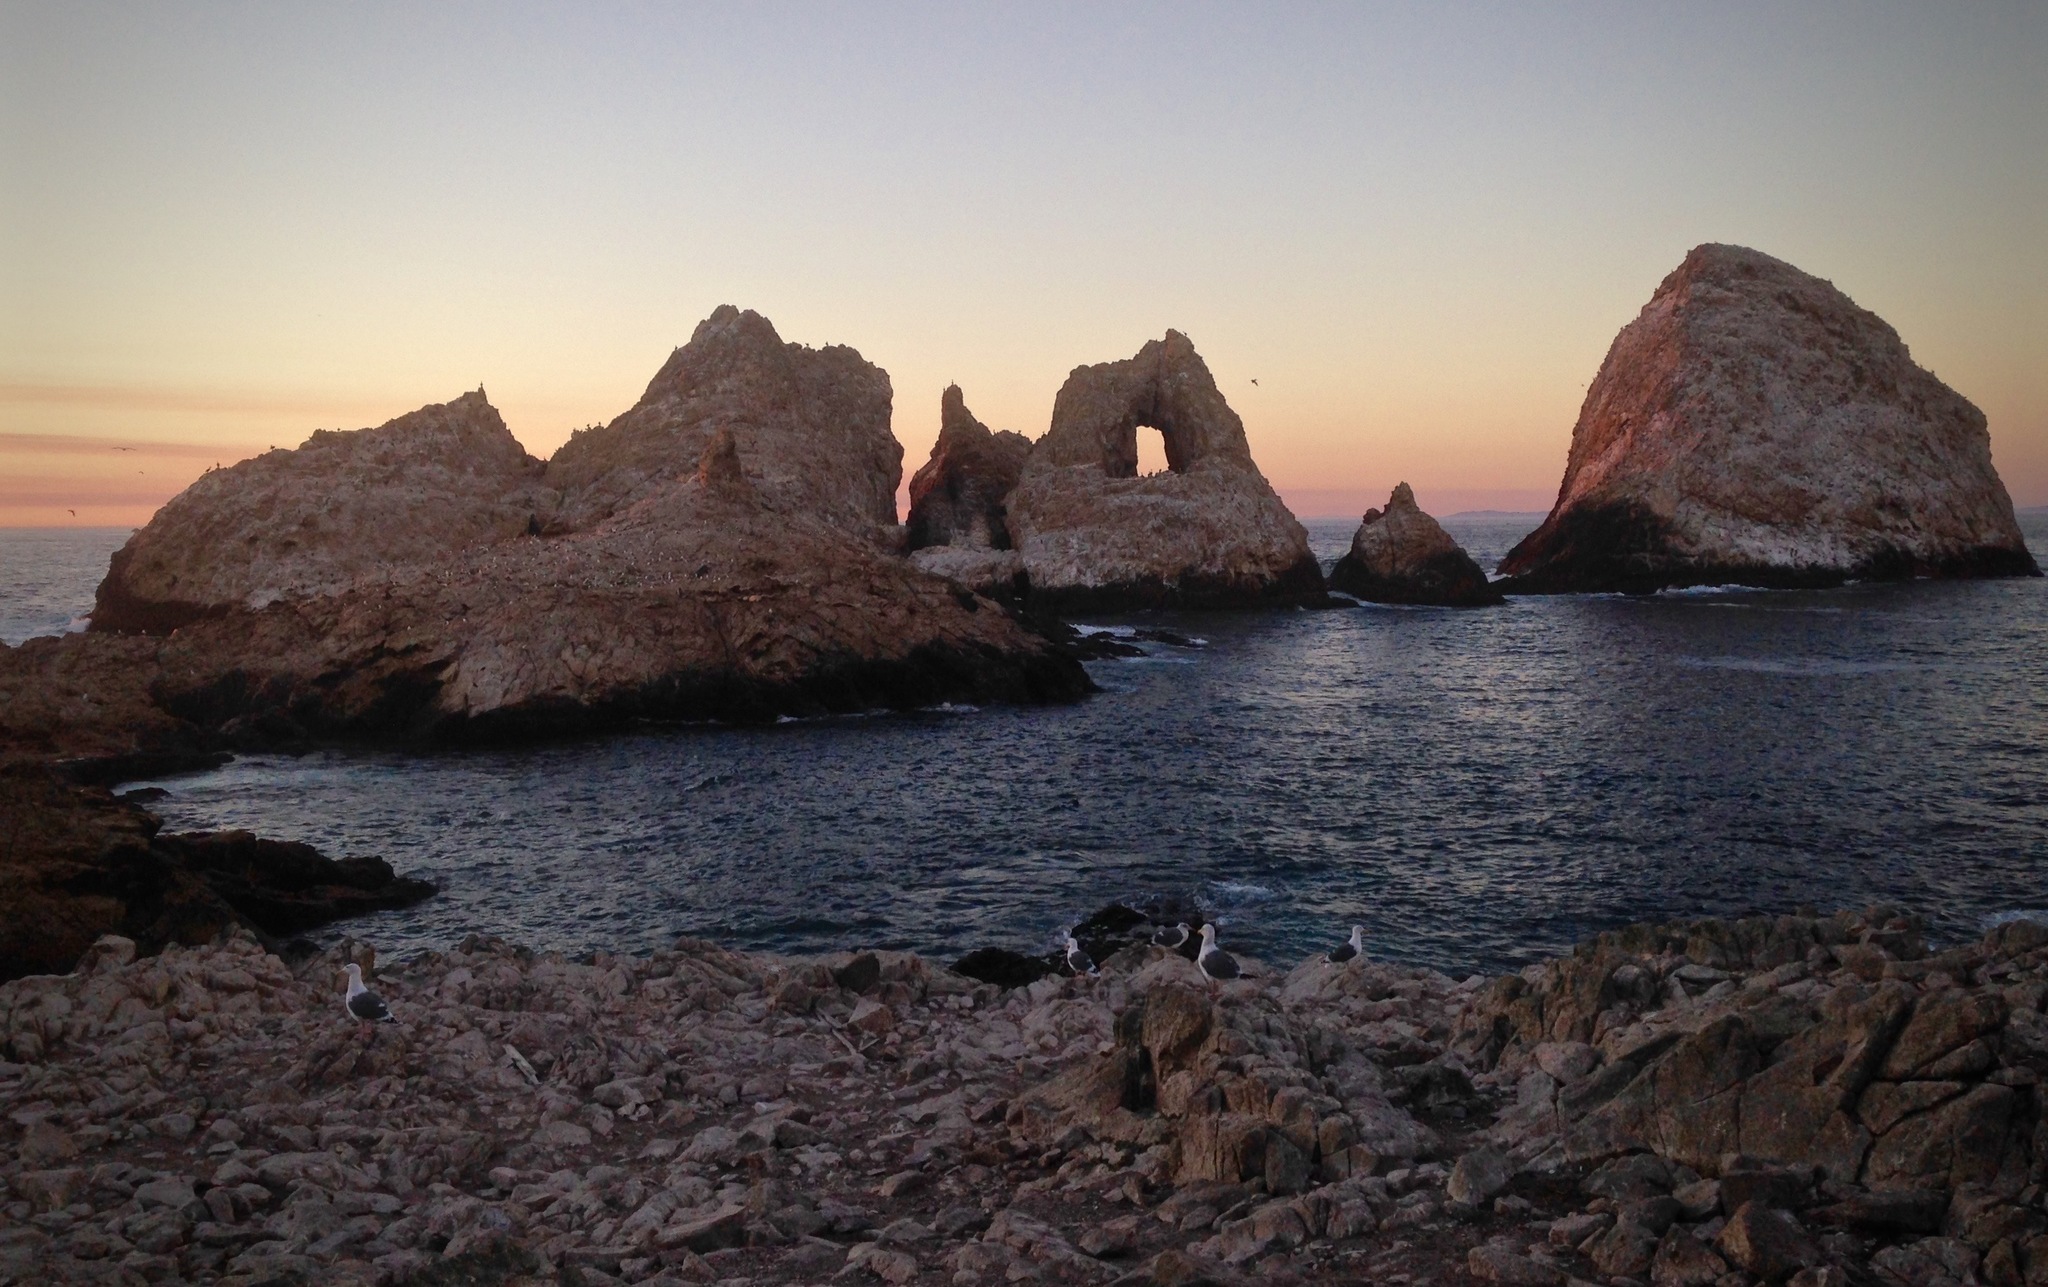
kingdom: Animalia
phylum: Chordata
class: Aves
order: Charadriiformes
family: Laridae
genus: Larus
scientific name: Larus occidentalis
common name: Western gull
